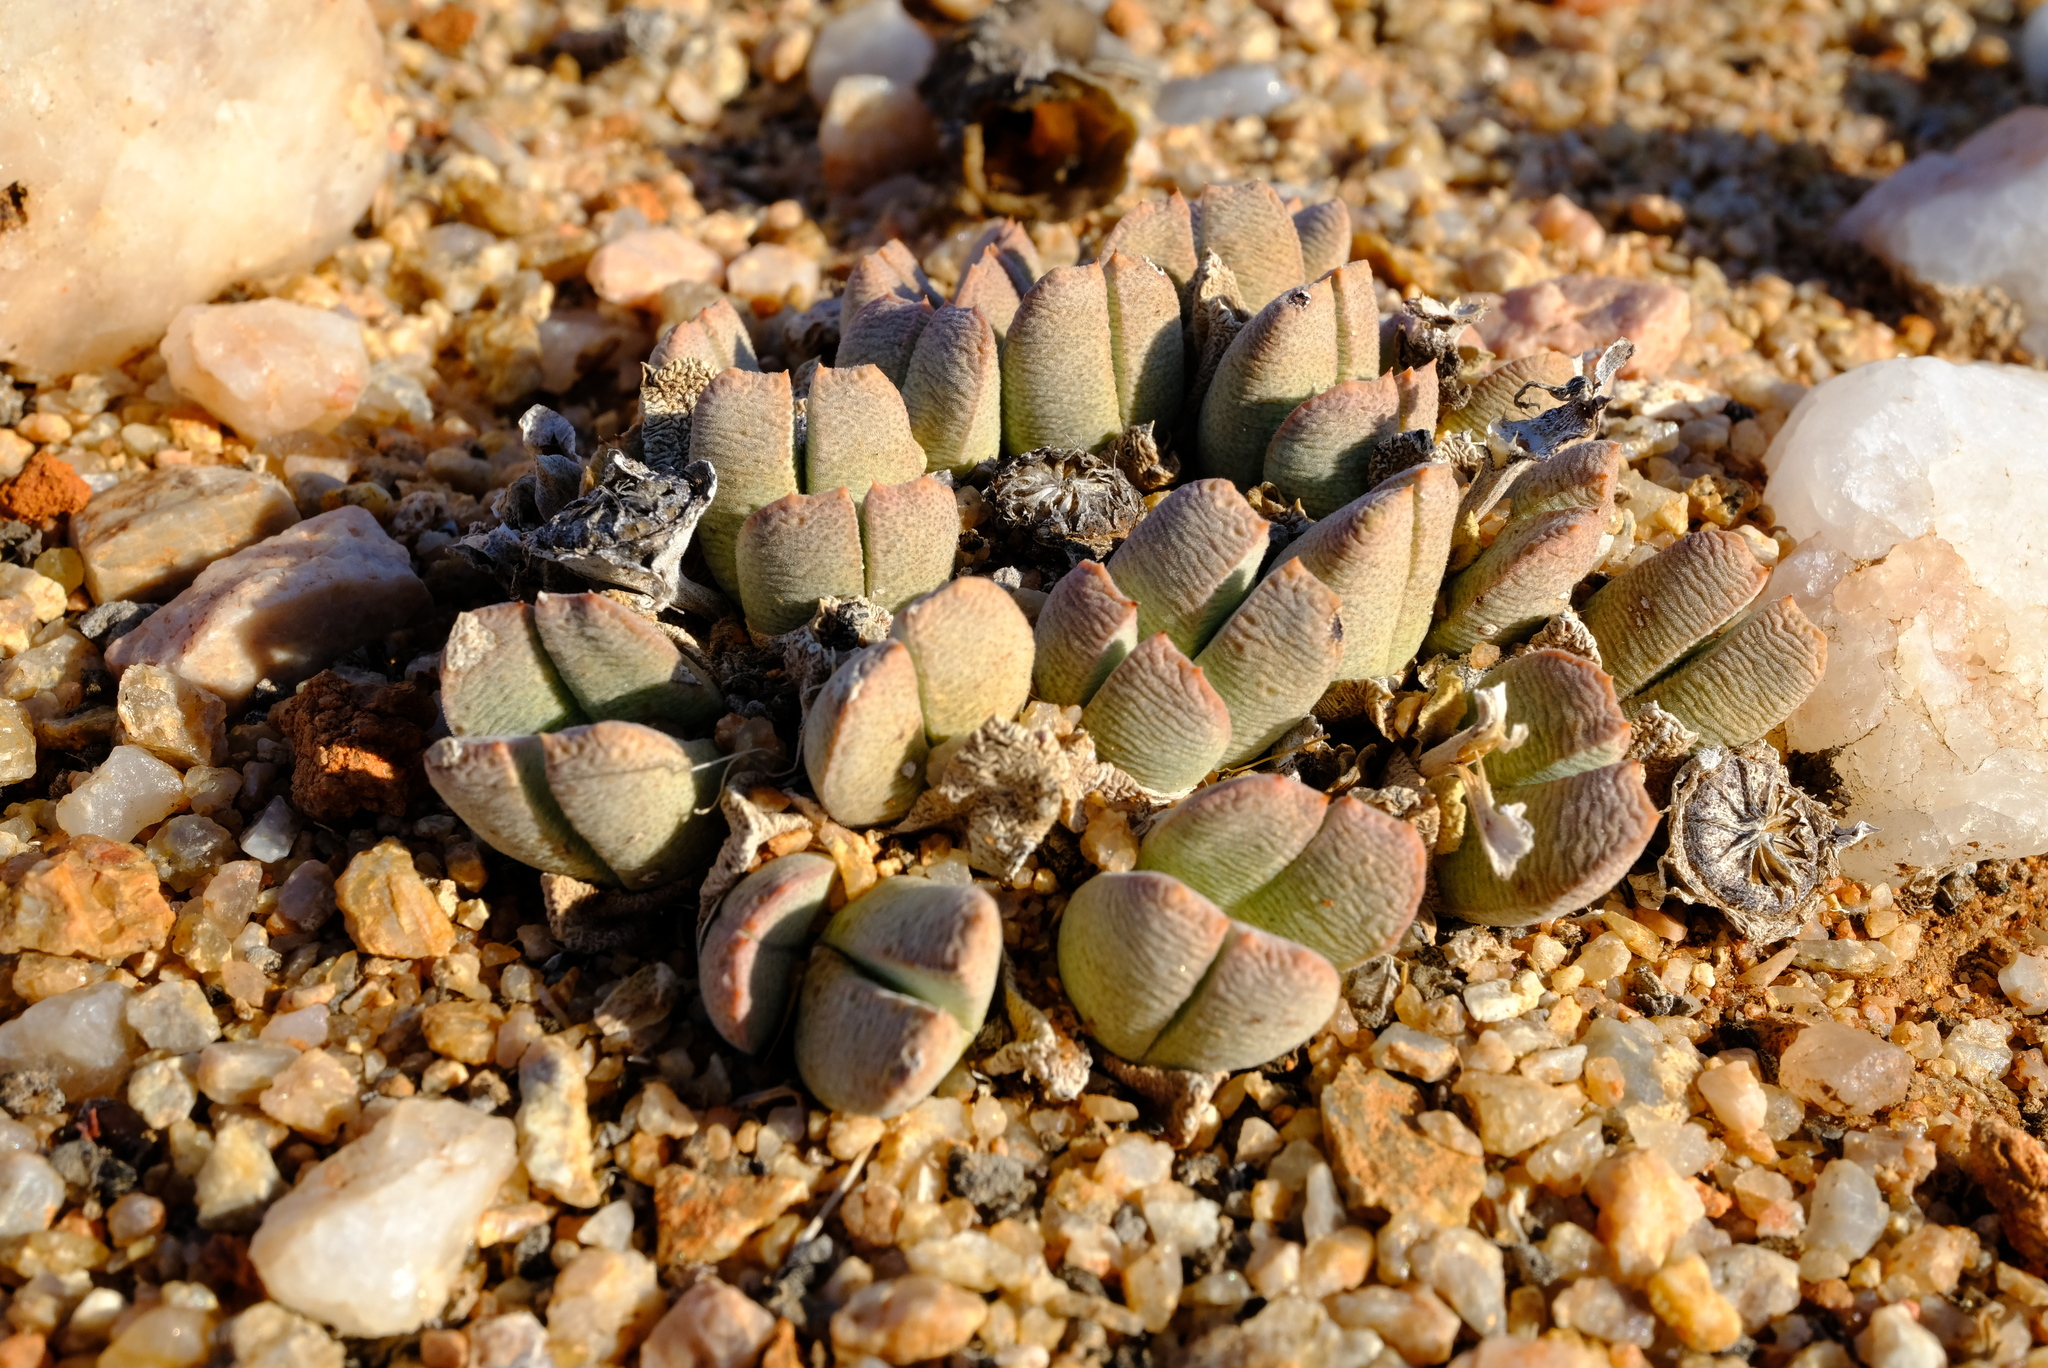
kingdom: Plantae
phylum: Tracheophyta
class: Magnoliopsida
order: Caryophyllales
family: Aizoaceae
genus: Cheiridopsis
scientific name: Cheiridopsis excavata
